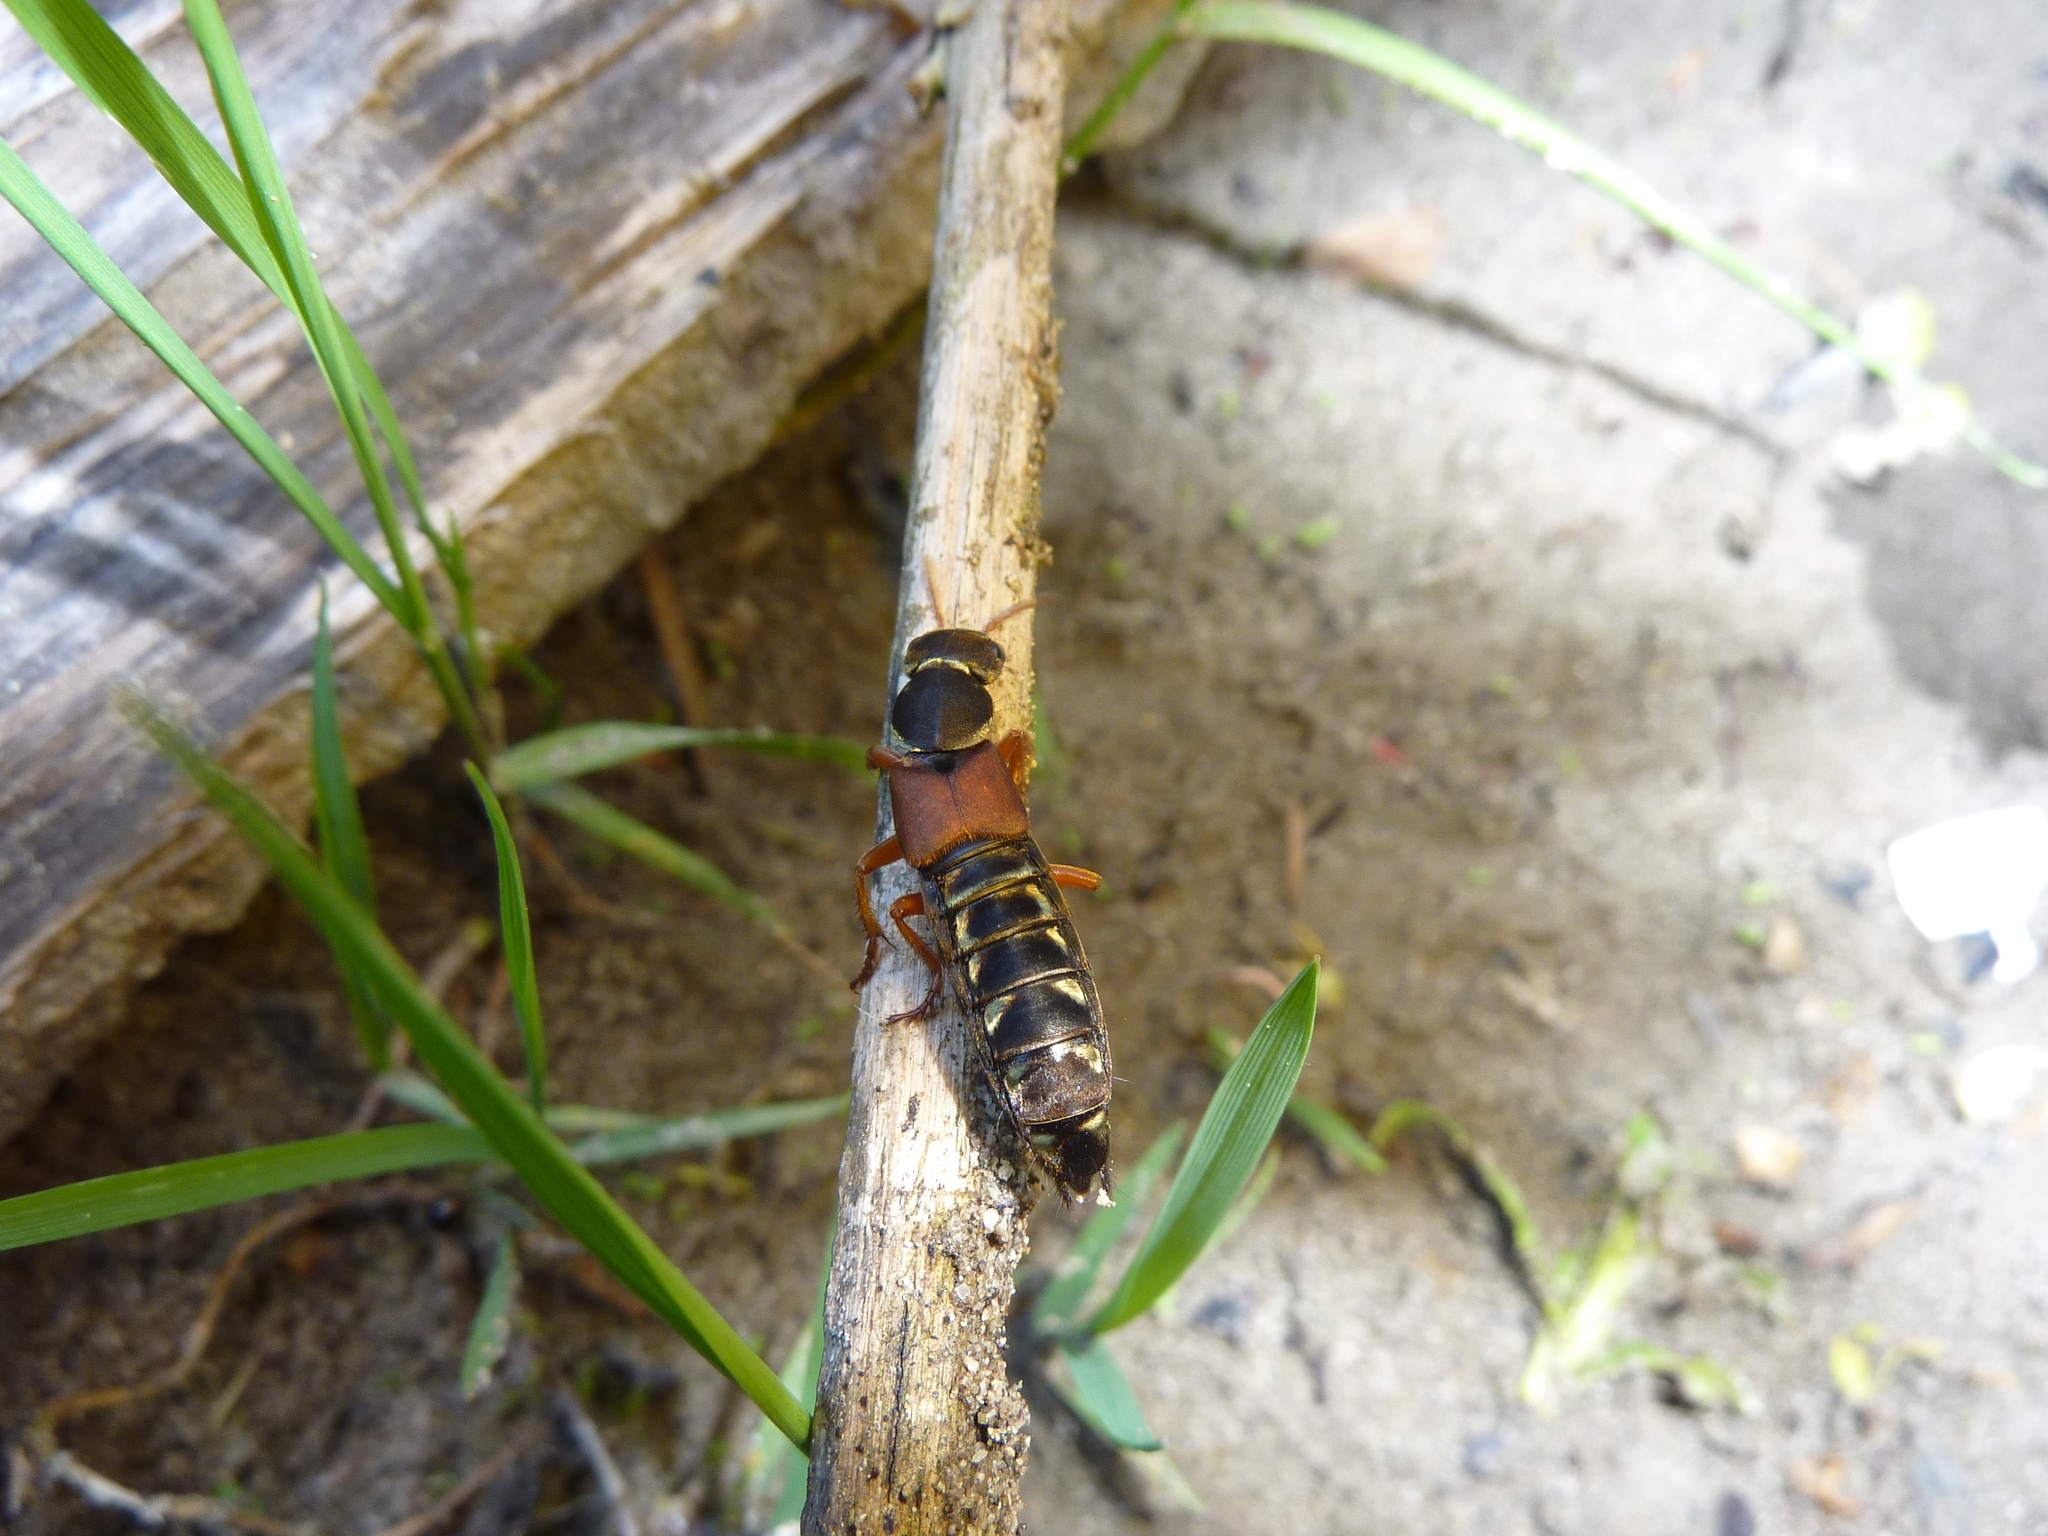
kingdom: Animalia
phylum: Arthropoda
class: Insecta
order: Coleoptera
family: Staphylinidae
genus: Staphylinus
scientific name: Staphylinus caesareus
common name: Staph beetle
